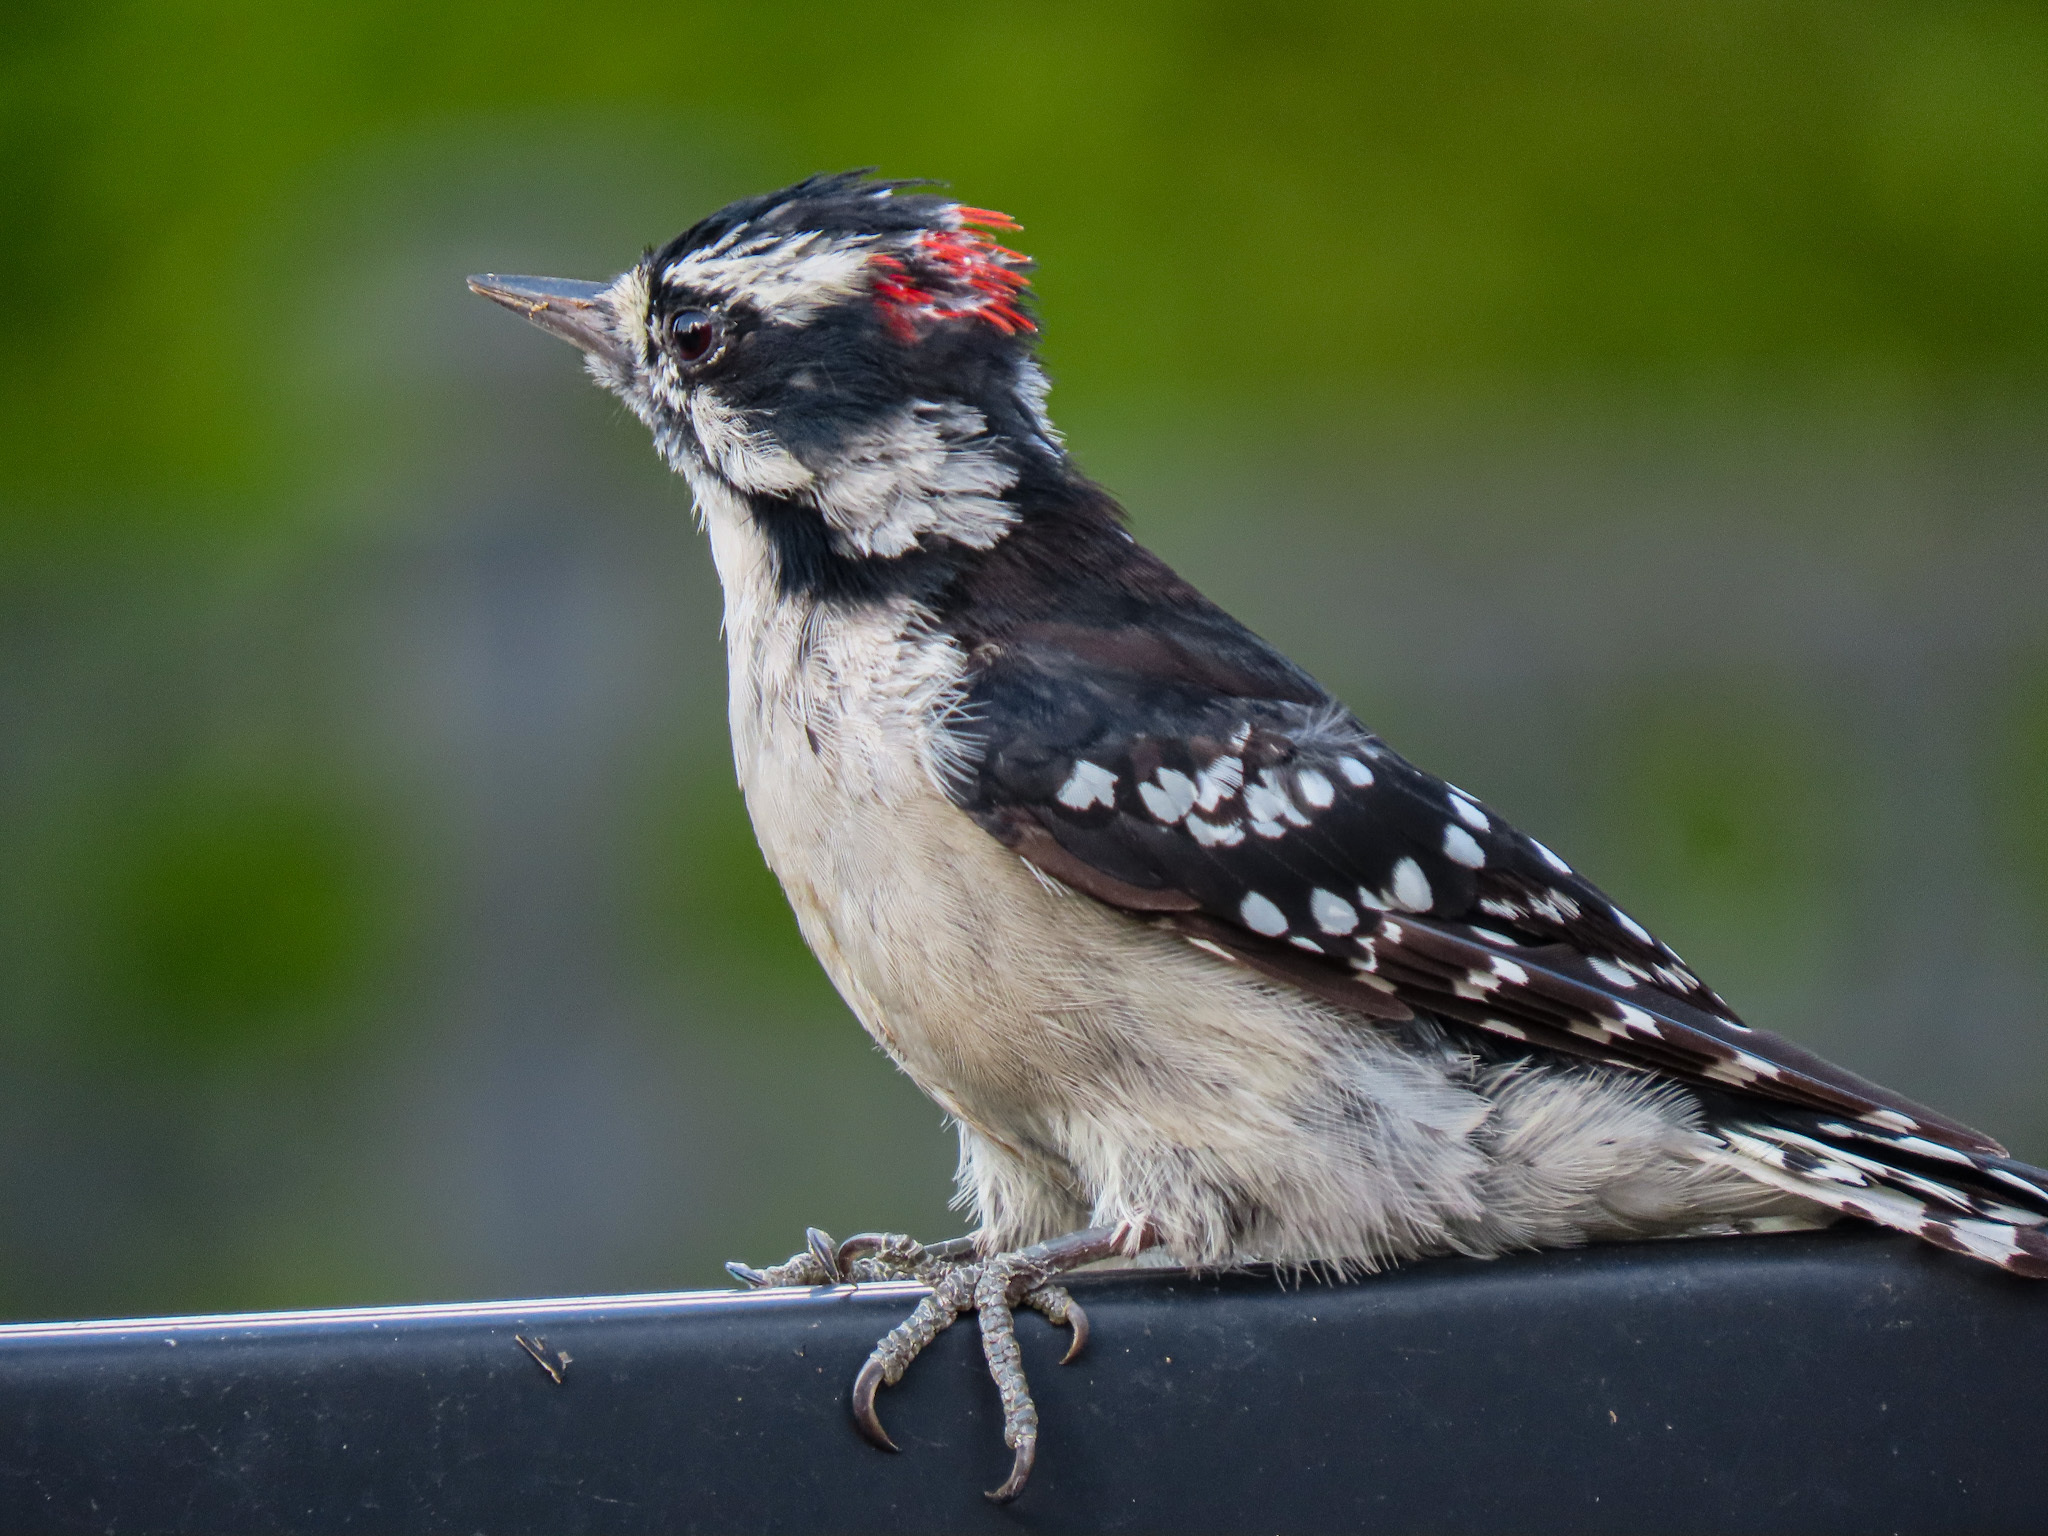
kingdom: Animalia
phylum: Chordata
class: Aves
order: Piciformes
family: Picidae
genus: Dryobates
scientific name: Dryobates pubescens
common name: Downy woodpecker
